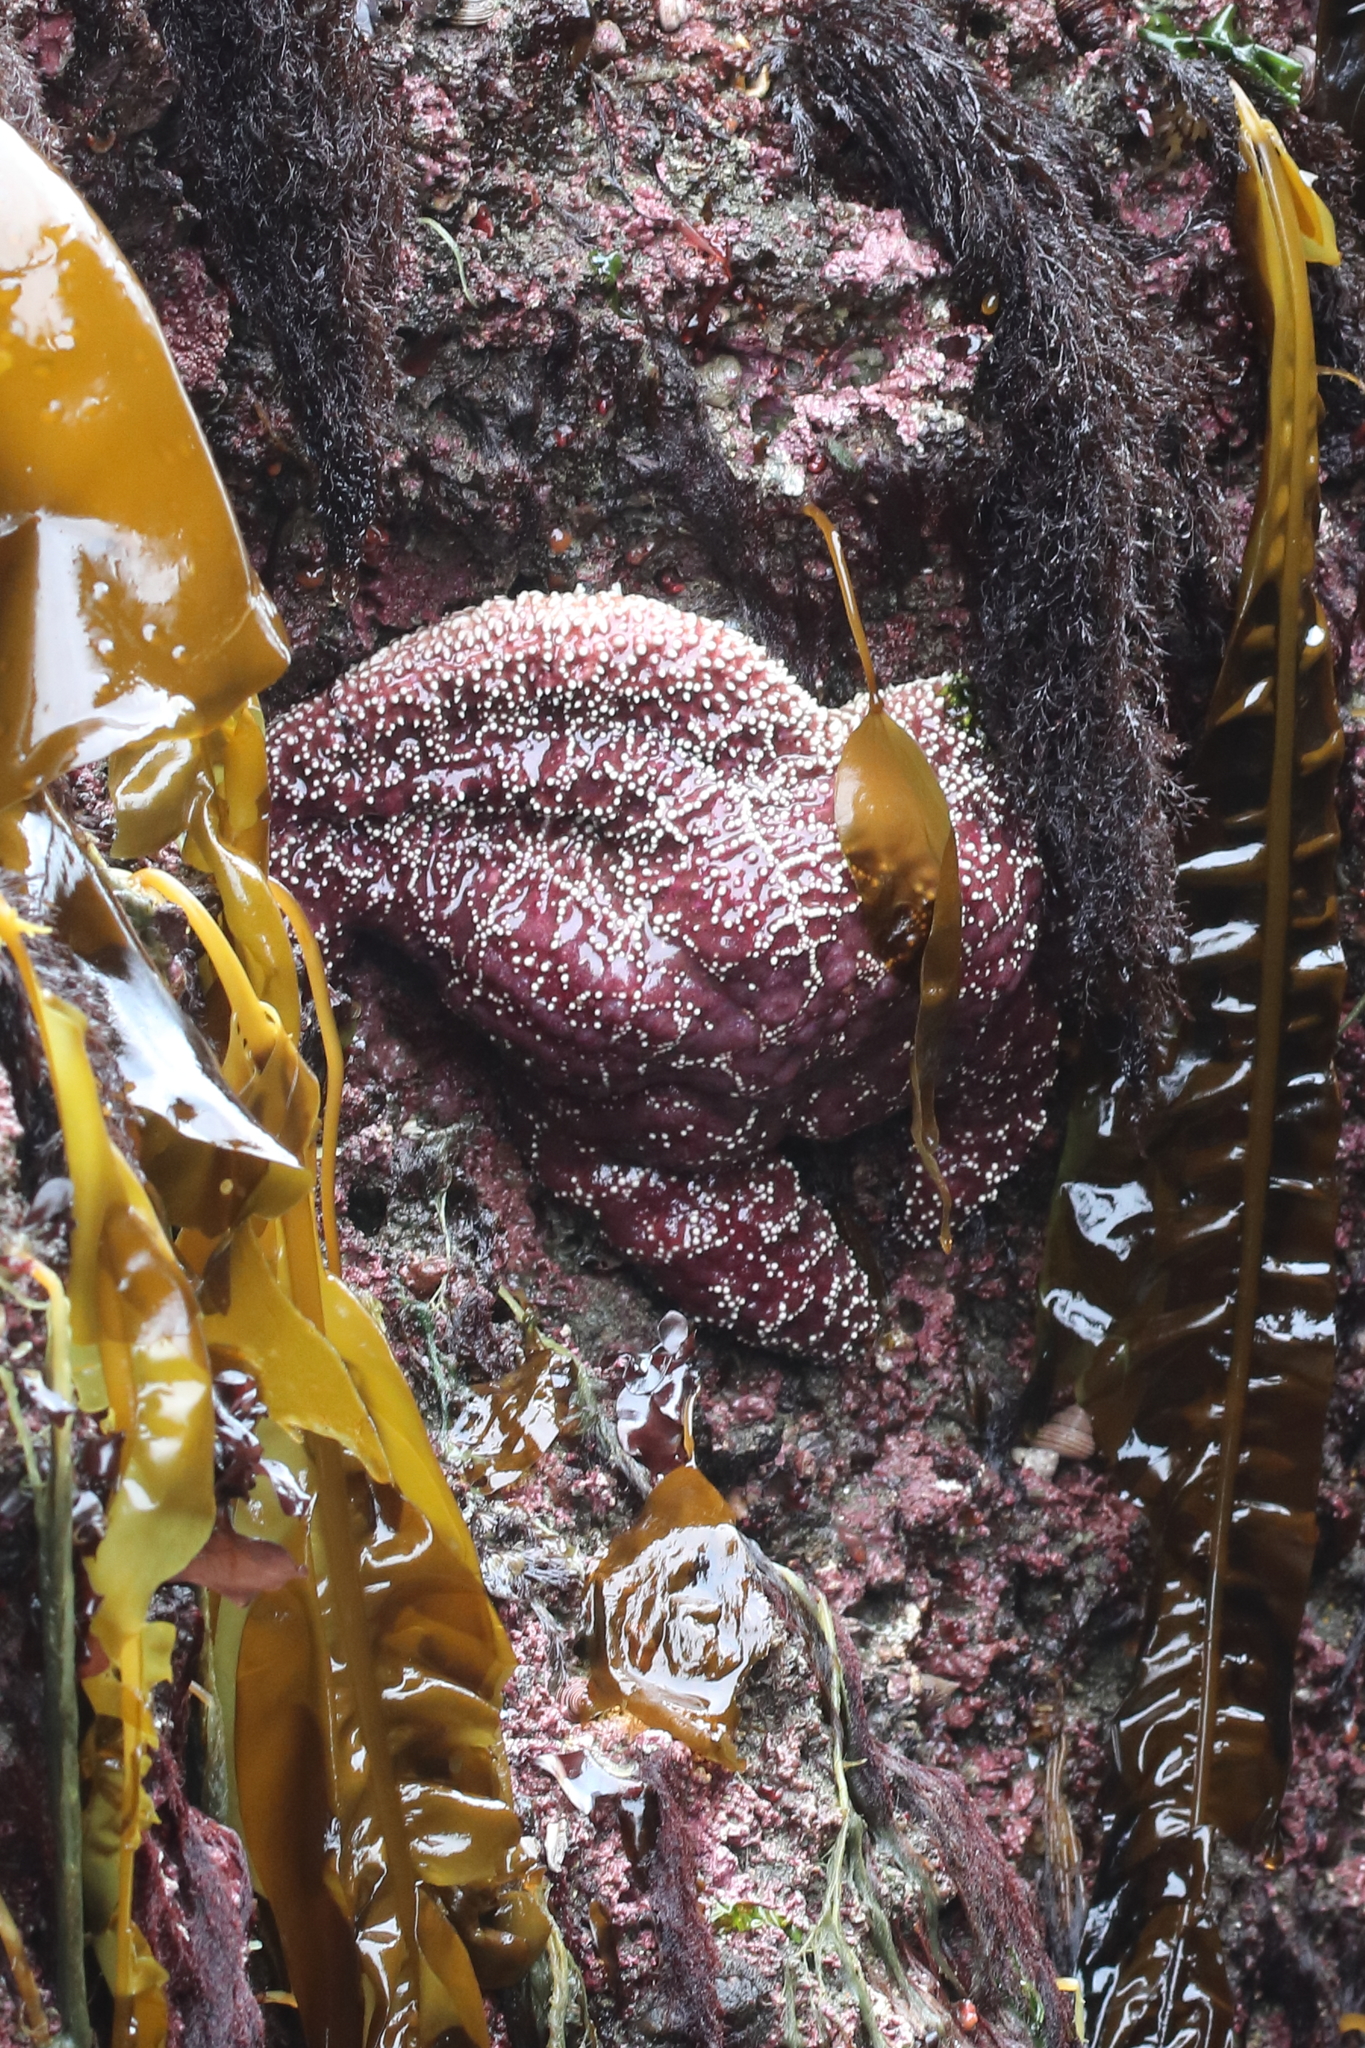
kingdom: Animalia
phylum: Echinodermata
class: Asteroidea
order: Forcipulatida
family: Asteriidae
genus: Pisaster
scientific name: Pisaster ochraceus
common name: Ochre stars
